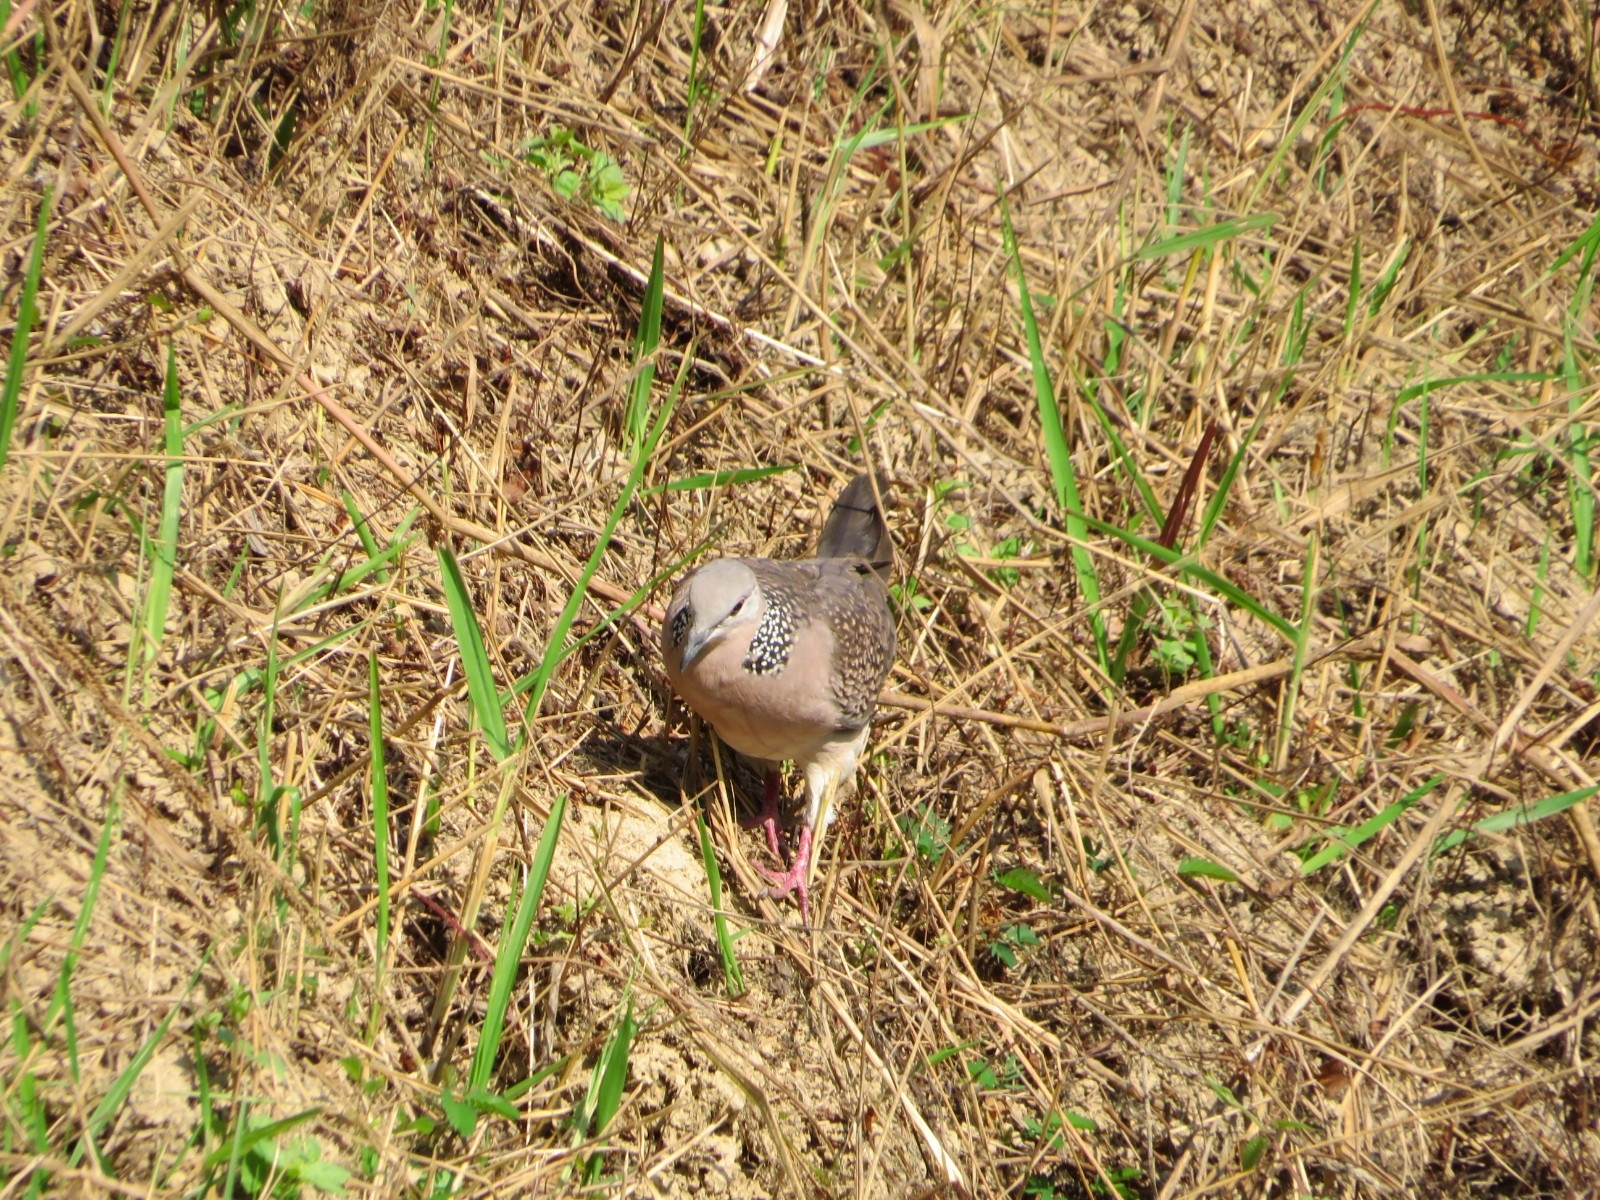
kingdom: Animalia
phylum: Chordata
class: Aves
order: Columbiformes
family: Columbidae
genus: Spilopelia
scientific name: Spilopelia chinensis
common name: Spotted dove
